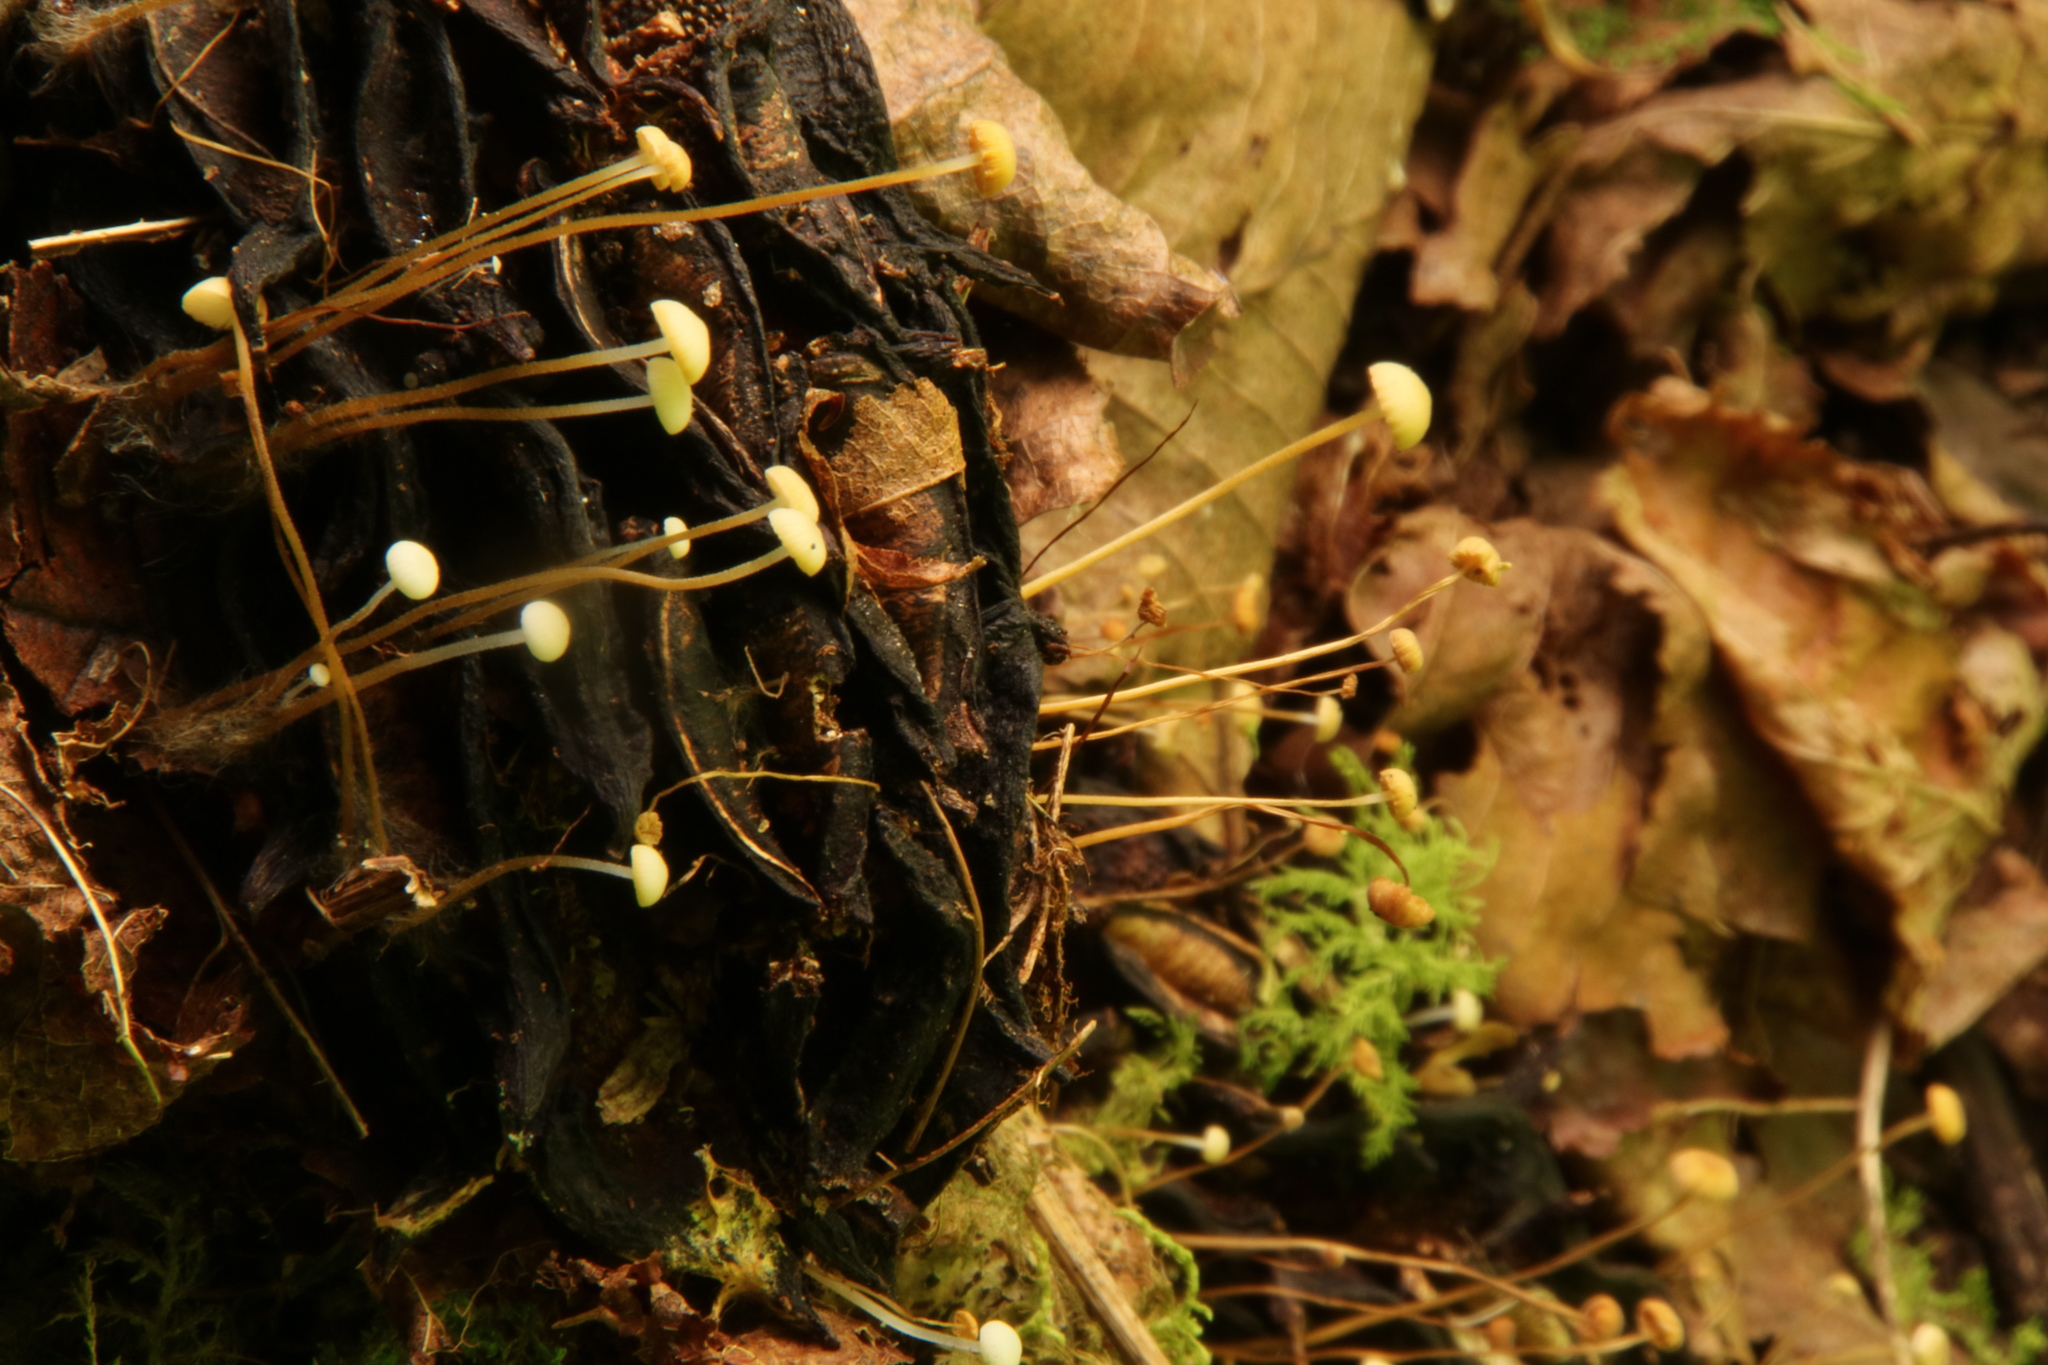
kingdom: Fungi
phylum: Basidiomycota
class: Agaricomycetes
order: Agaricales
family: Physalacriaceae
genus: Strobilurus
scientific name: Strobilurus conigenoides
